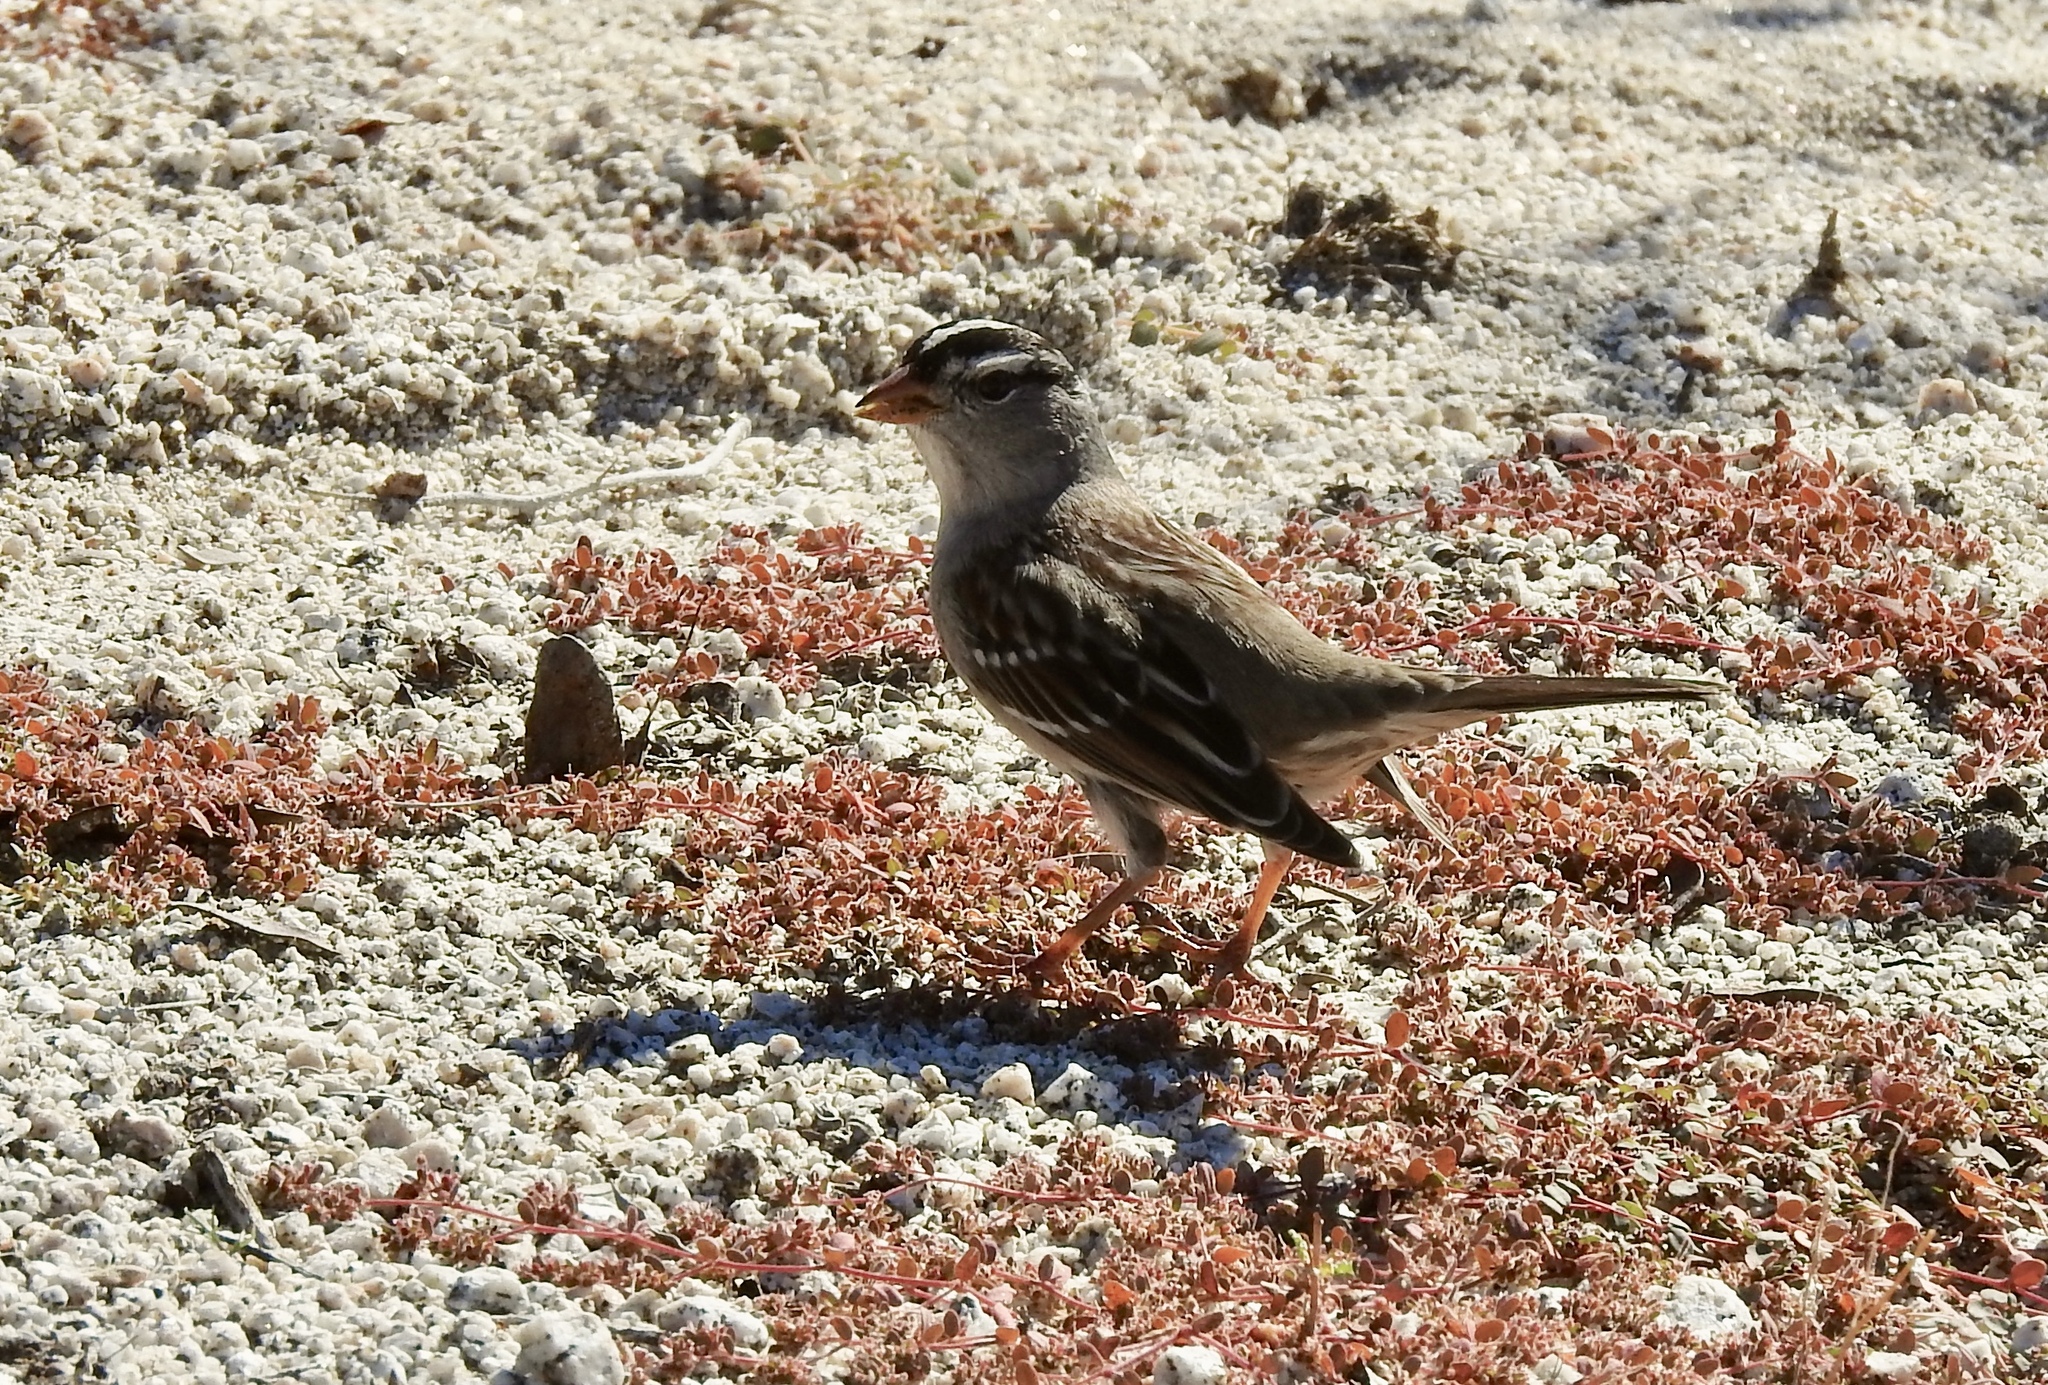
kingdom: Animalia
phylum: Chordata
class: Aves
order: Passeriformes
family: Passerellidae
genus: Zonotrichia
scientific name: Zonotrichia leucophrys
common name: White-crowned sparrow
